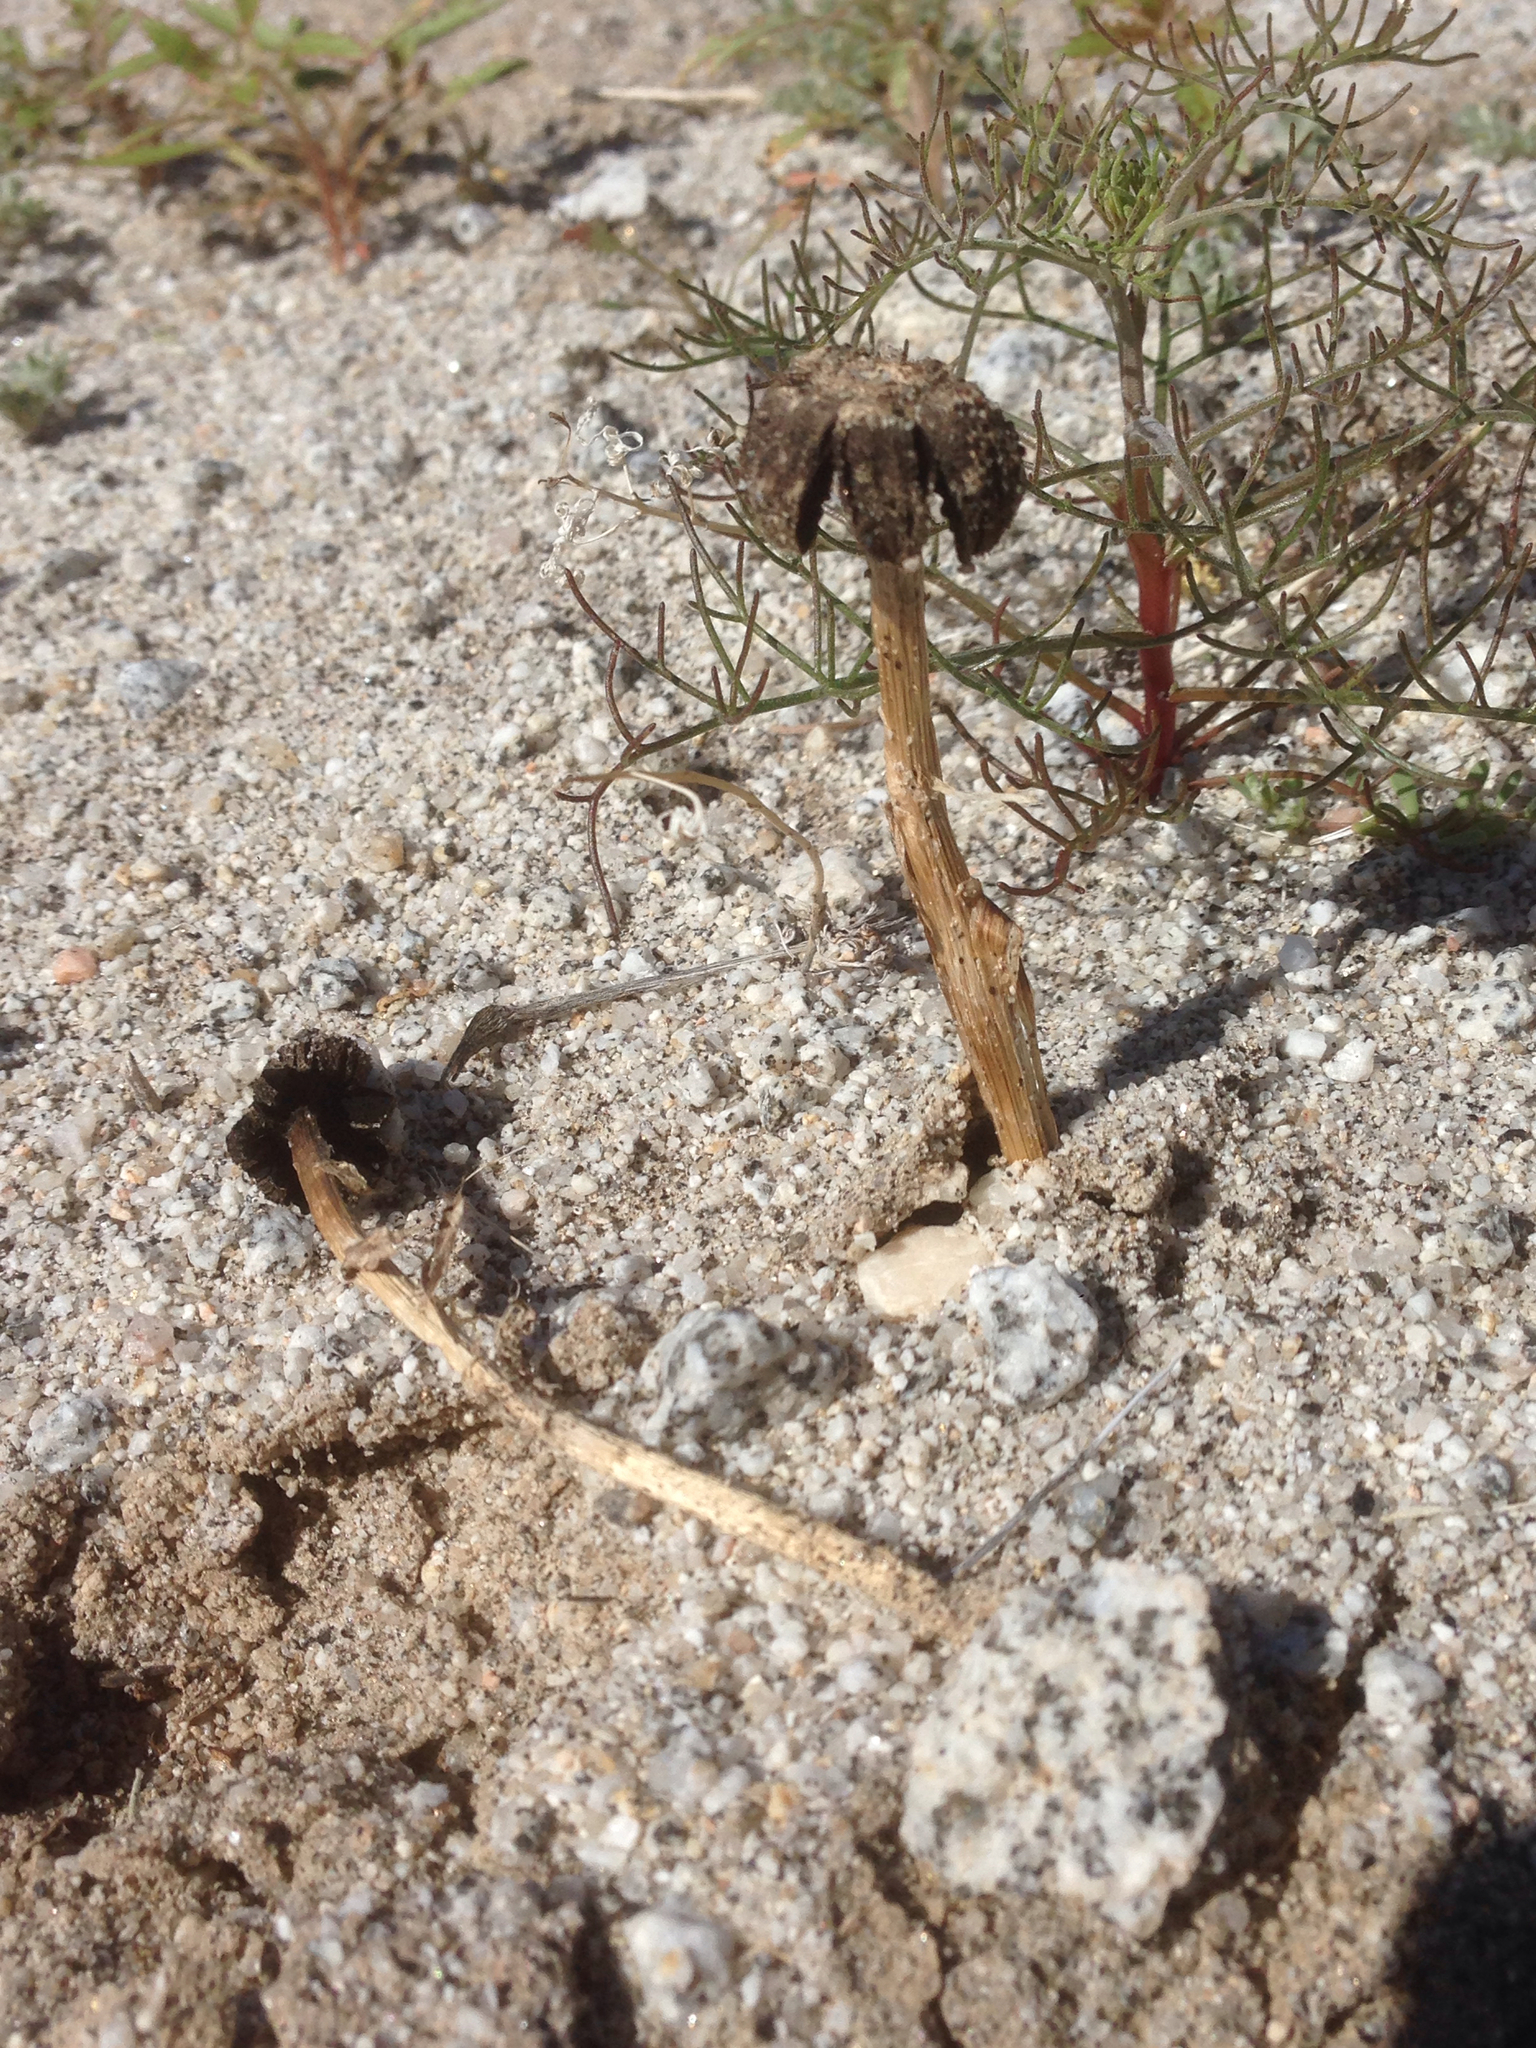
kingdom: Fungi
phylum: Basidiomycota
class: Agaricomycetes
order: Agaricales
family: Agaricaceae
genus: Montagnea
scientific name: Montagnea arenaria
